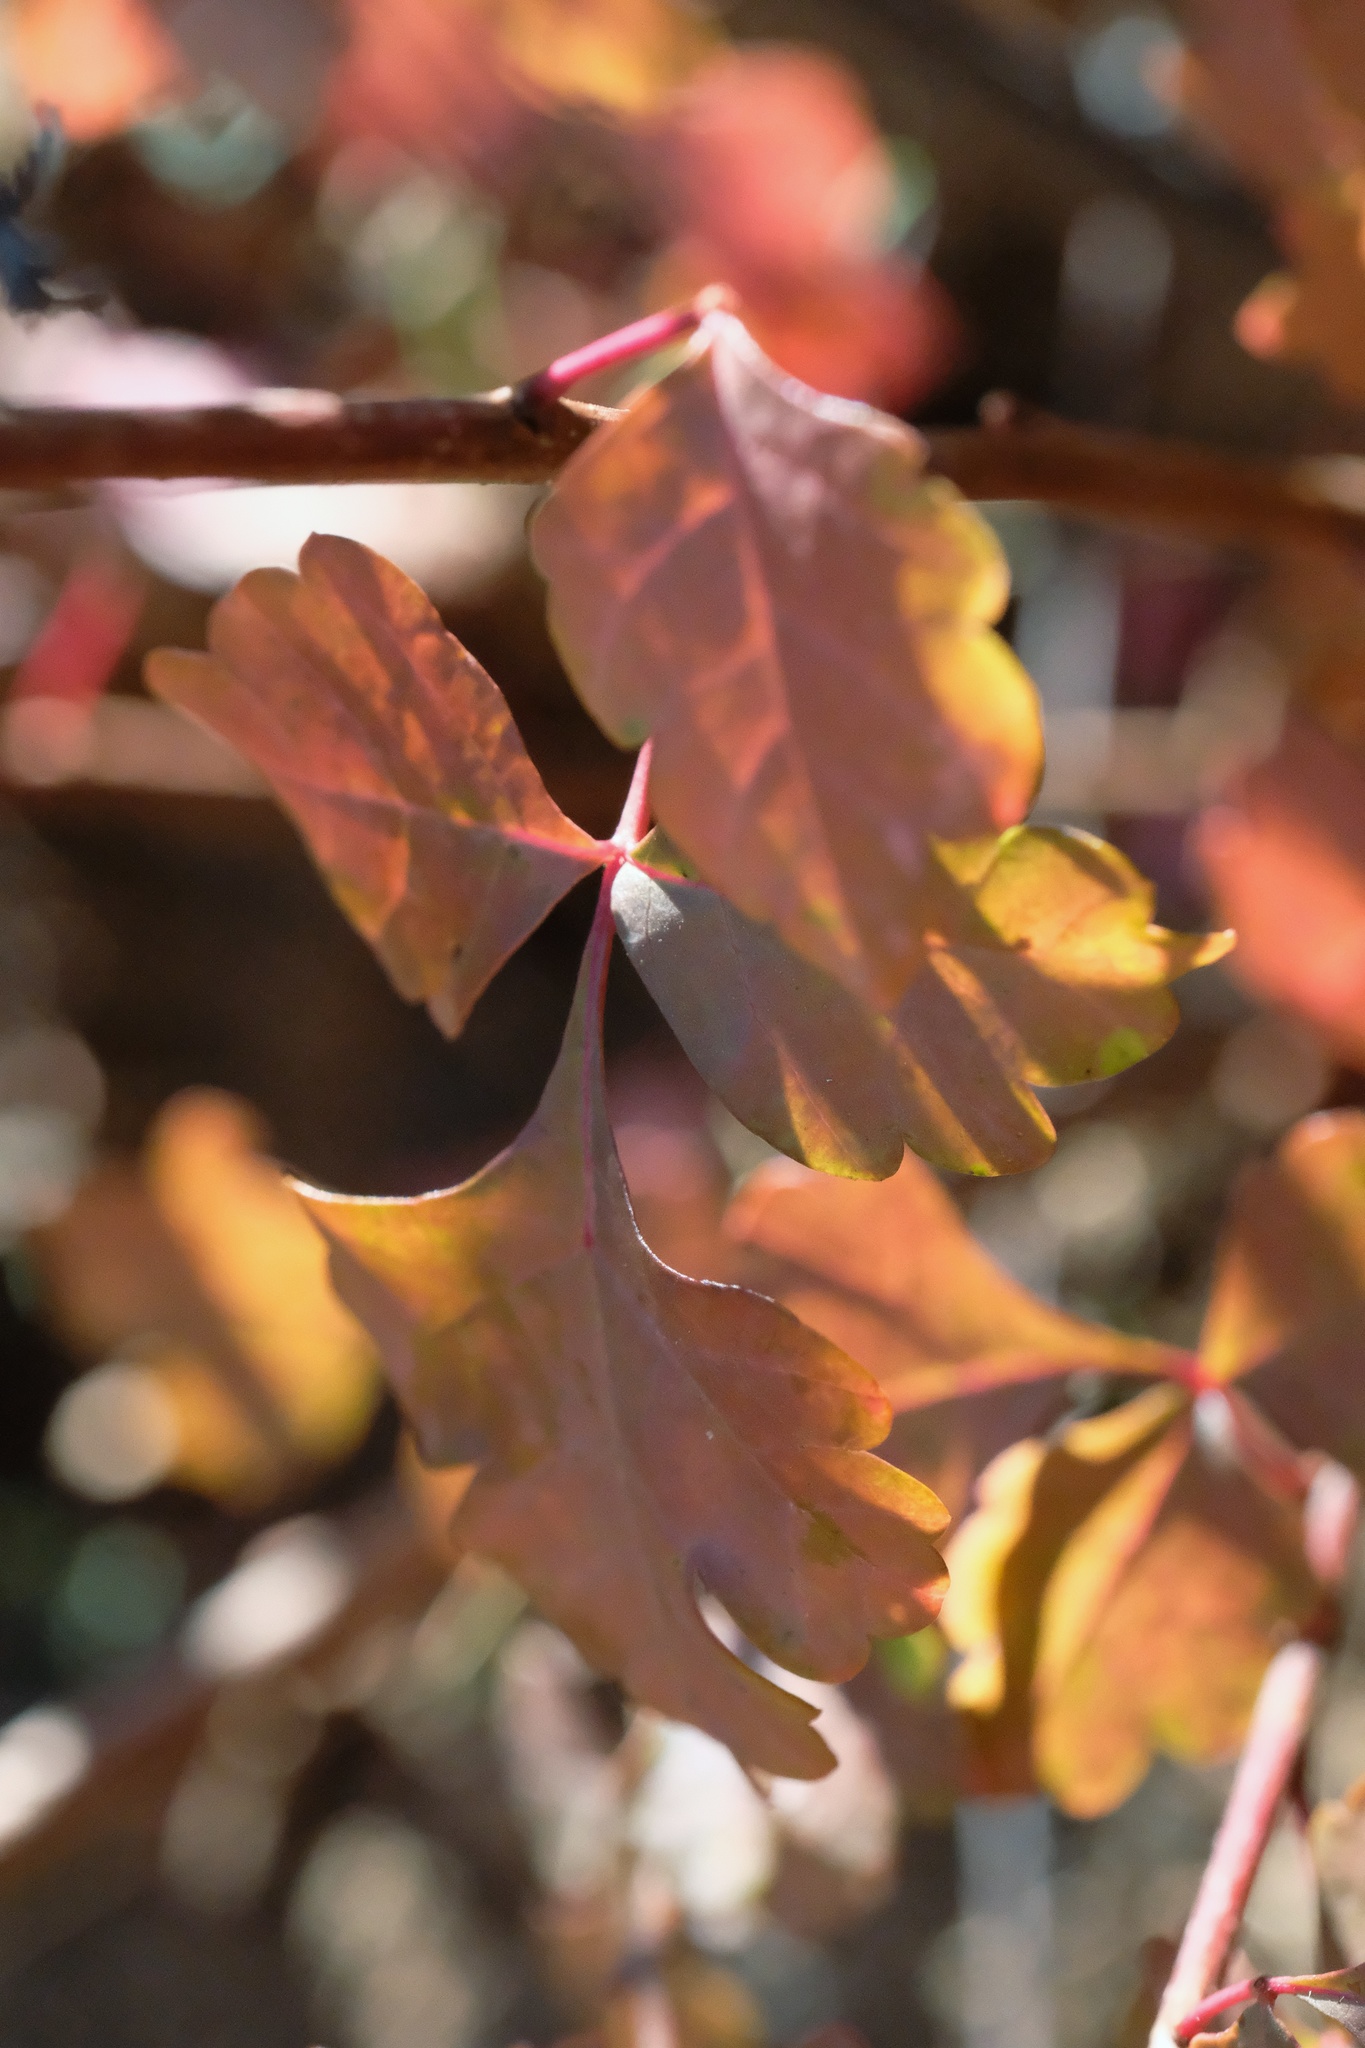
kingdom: Plantae
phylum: Tracheophyta
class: Magnoliopsida
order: Sapindales
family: Anacardiaceae
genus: Rhus
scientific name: Rhus aromatica
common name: Aromatic sumac
